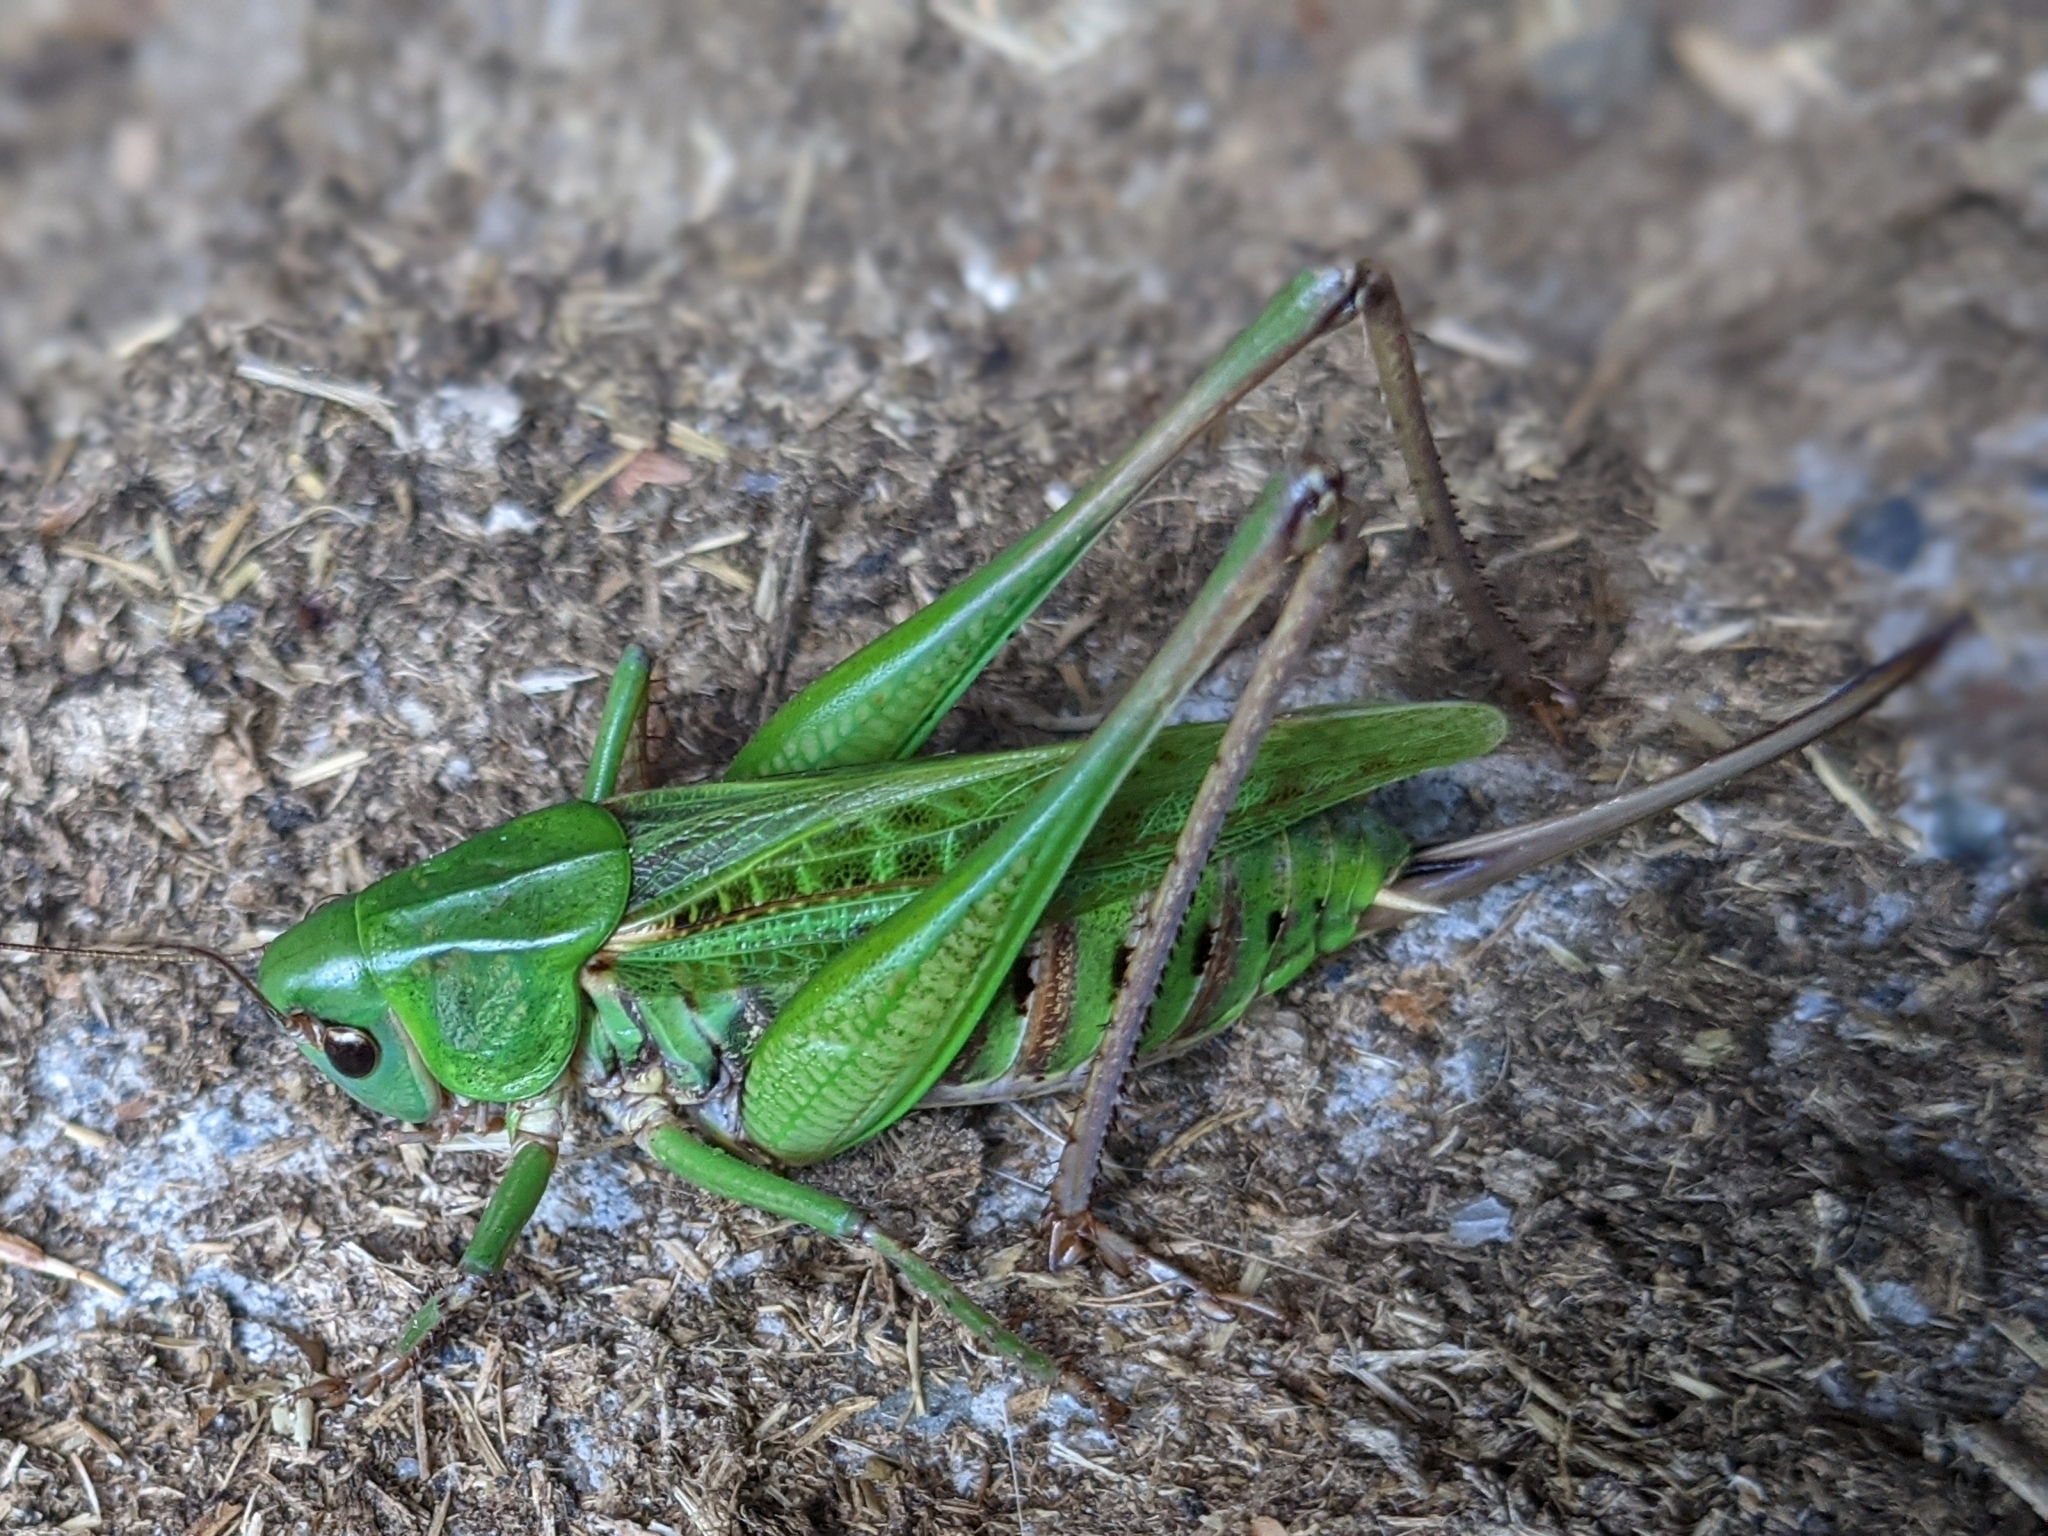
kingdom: Animalia
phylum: Arthropoda
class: Insecta
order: Orthoptera
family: Tettigoniidae
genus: Decticus
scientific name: Decticus verrucivorus
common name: Wart-biter
